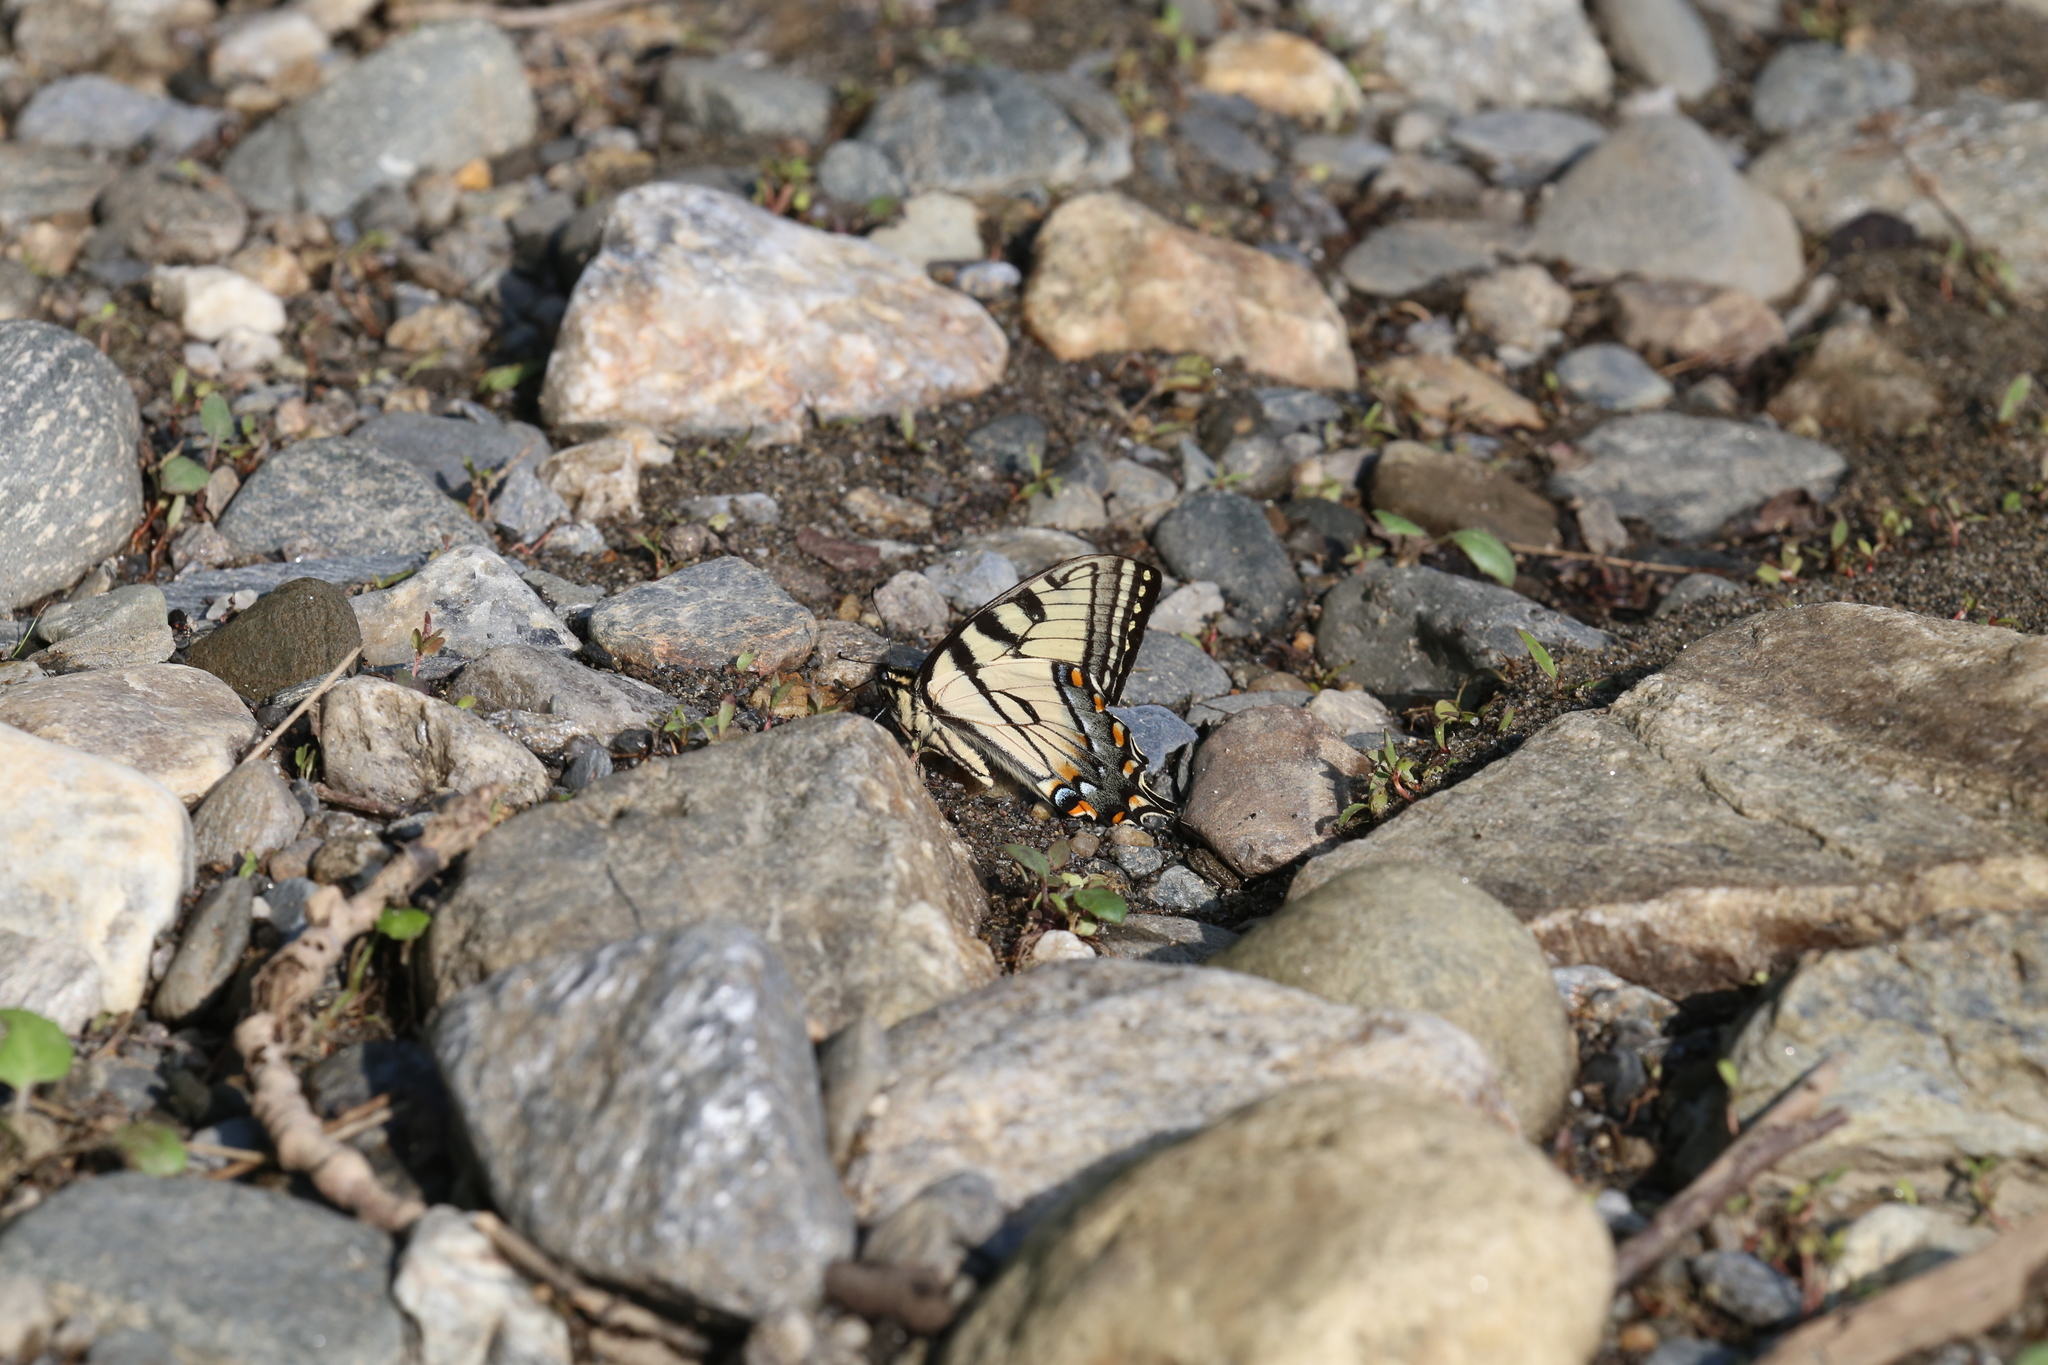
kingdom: Animalia
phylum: Arthropoda
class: Insecta
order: Lepidoptera
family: Papilionidae
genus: Papilio
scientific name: Papilio canadensis
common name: Canadian tiger swallowtail
